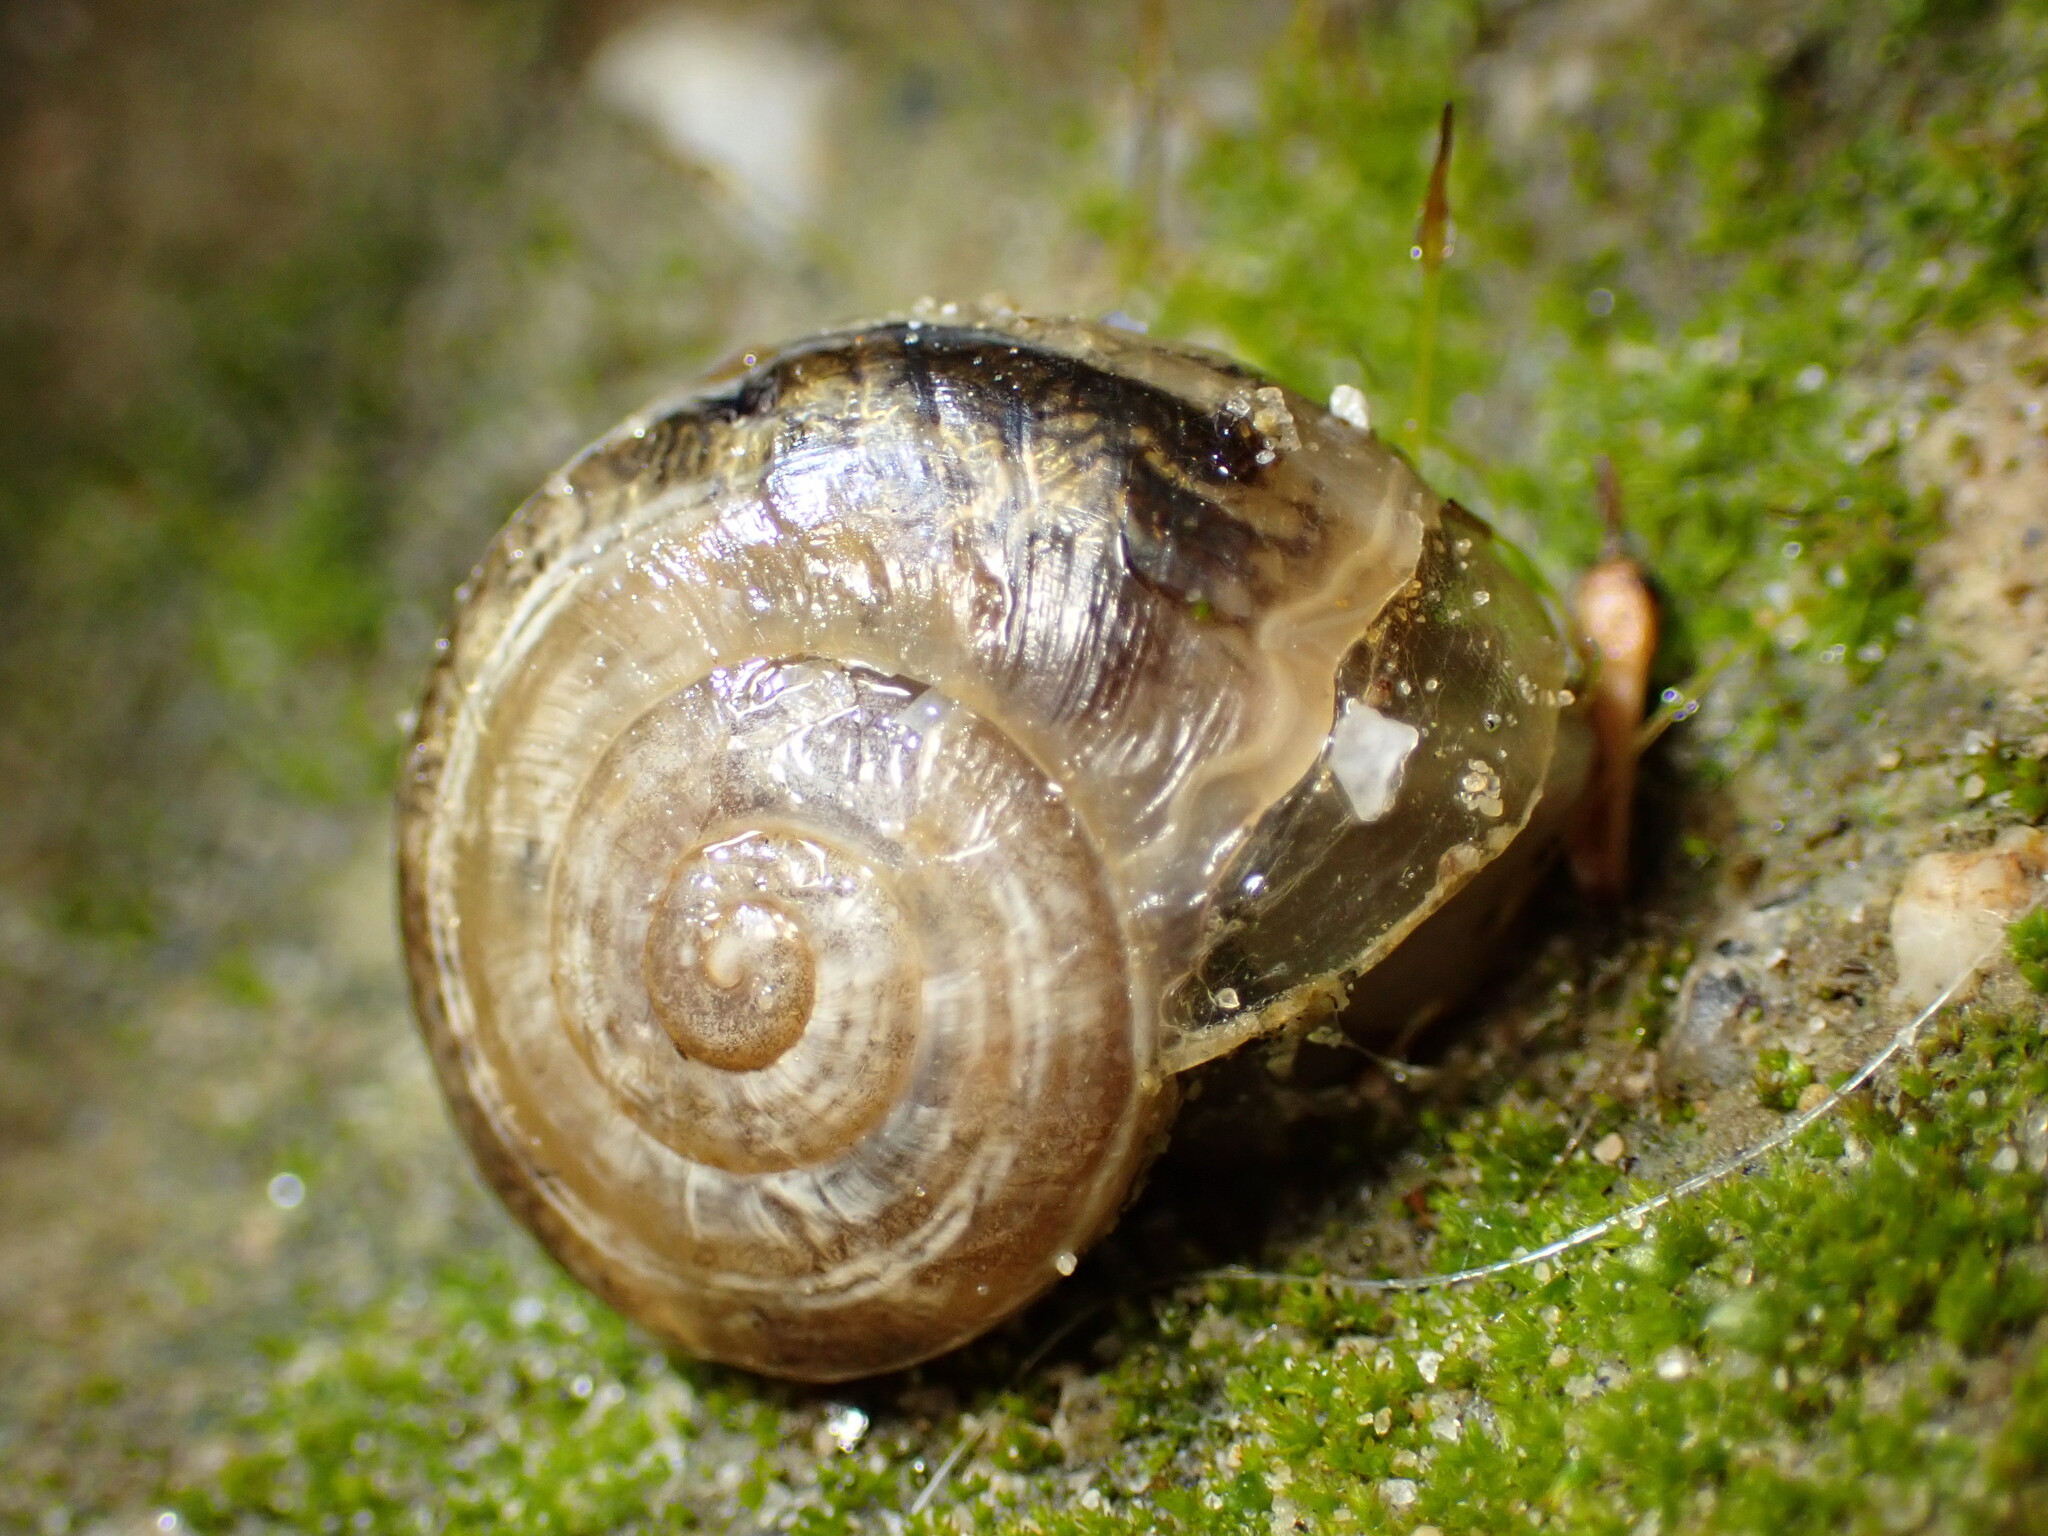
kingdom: Animalia
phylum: Mollusca
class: Gastropoda
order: Stylommatophora
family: Helicidae
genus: Otala
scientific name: Otala lactea
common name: Milk snail
